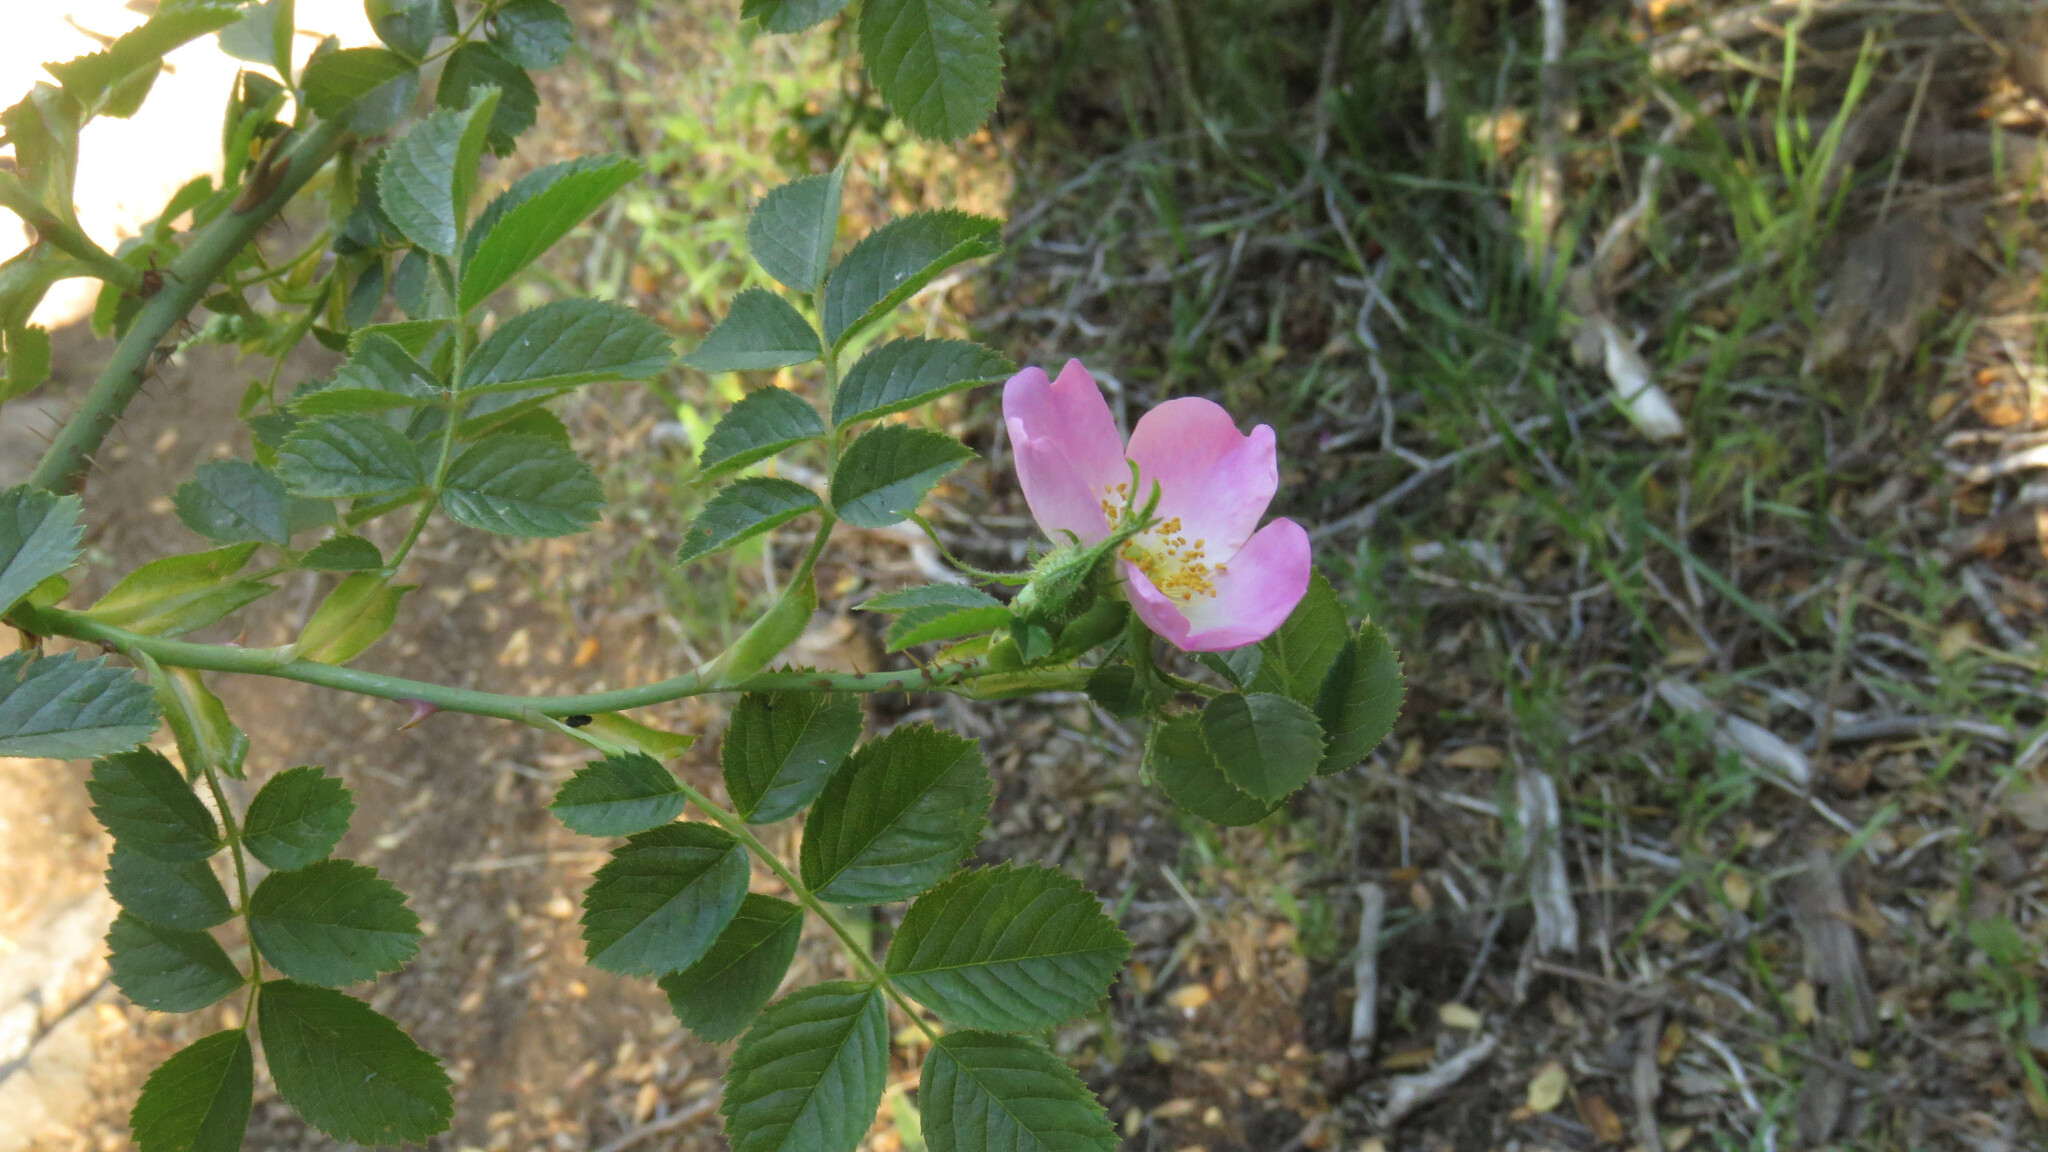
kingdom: Plantae
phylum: Tracheophyta
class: Magnoliopsida
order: Rosales
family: Rosaceae
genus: Rosa
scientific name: Rosa rubiginosa
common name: Sweet-briar
